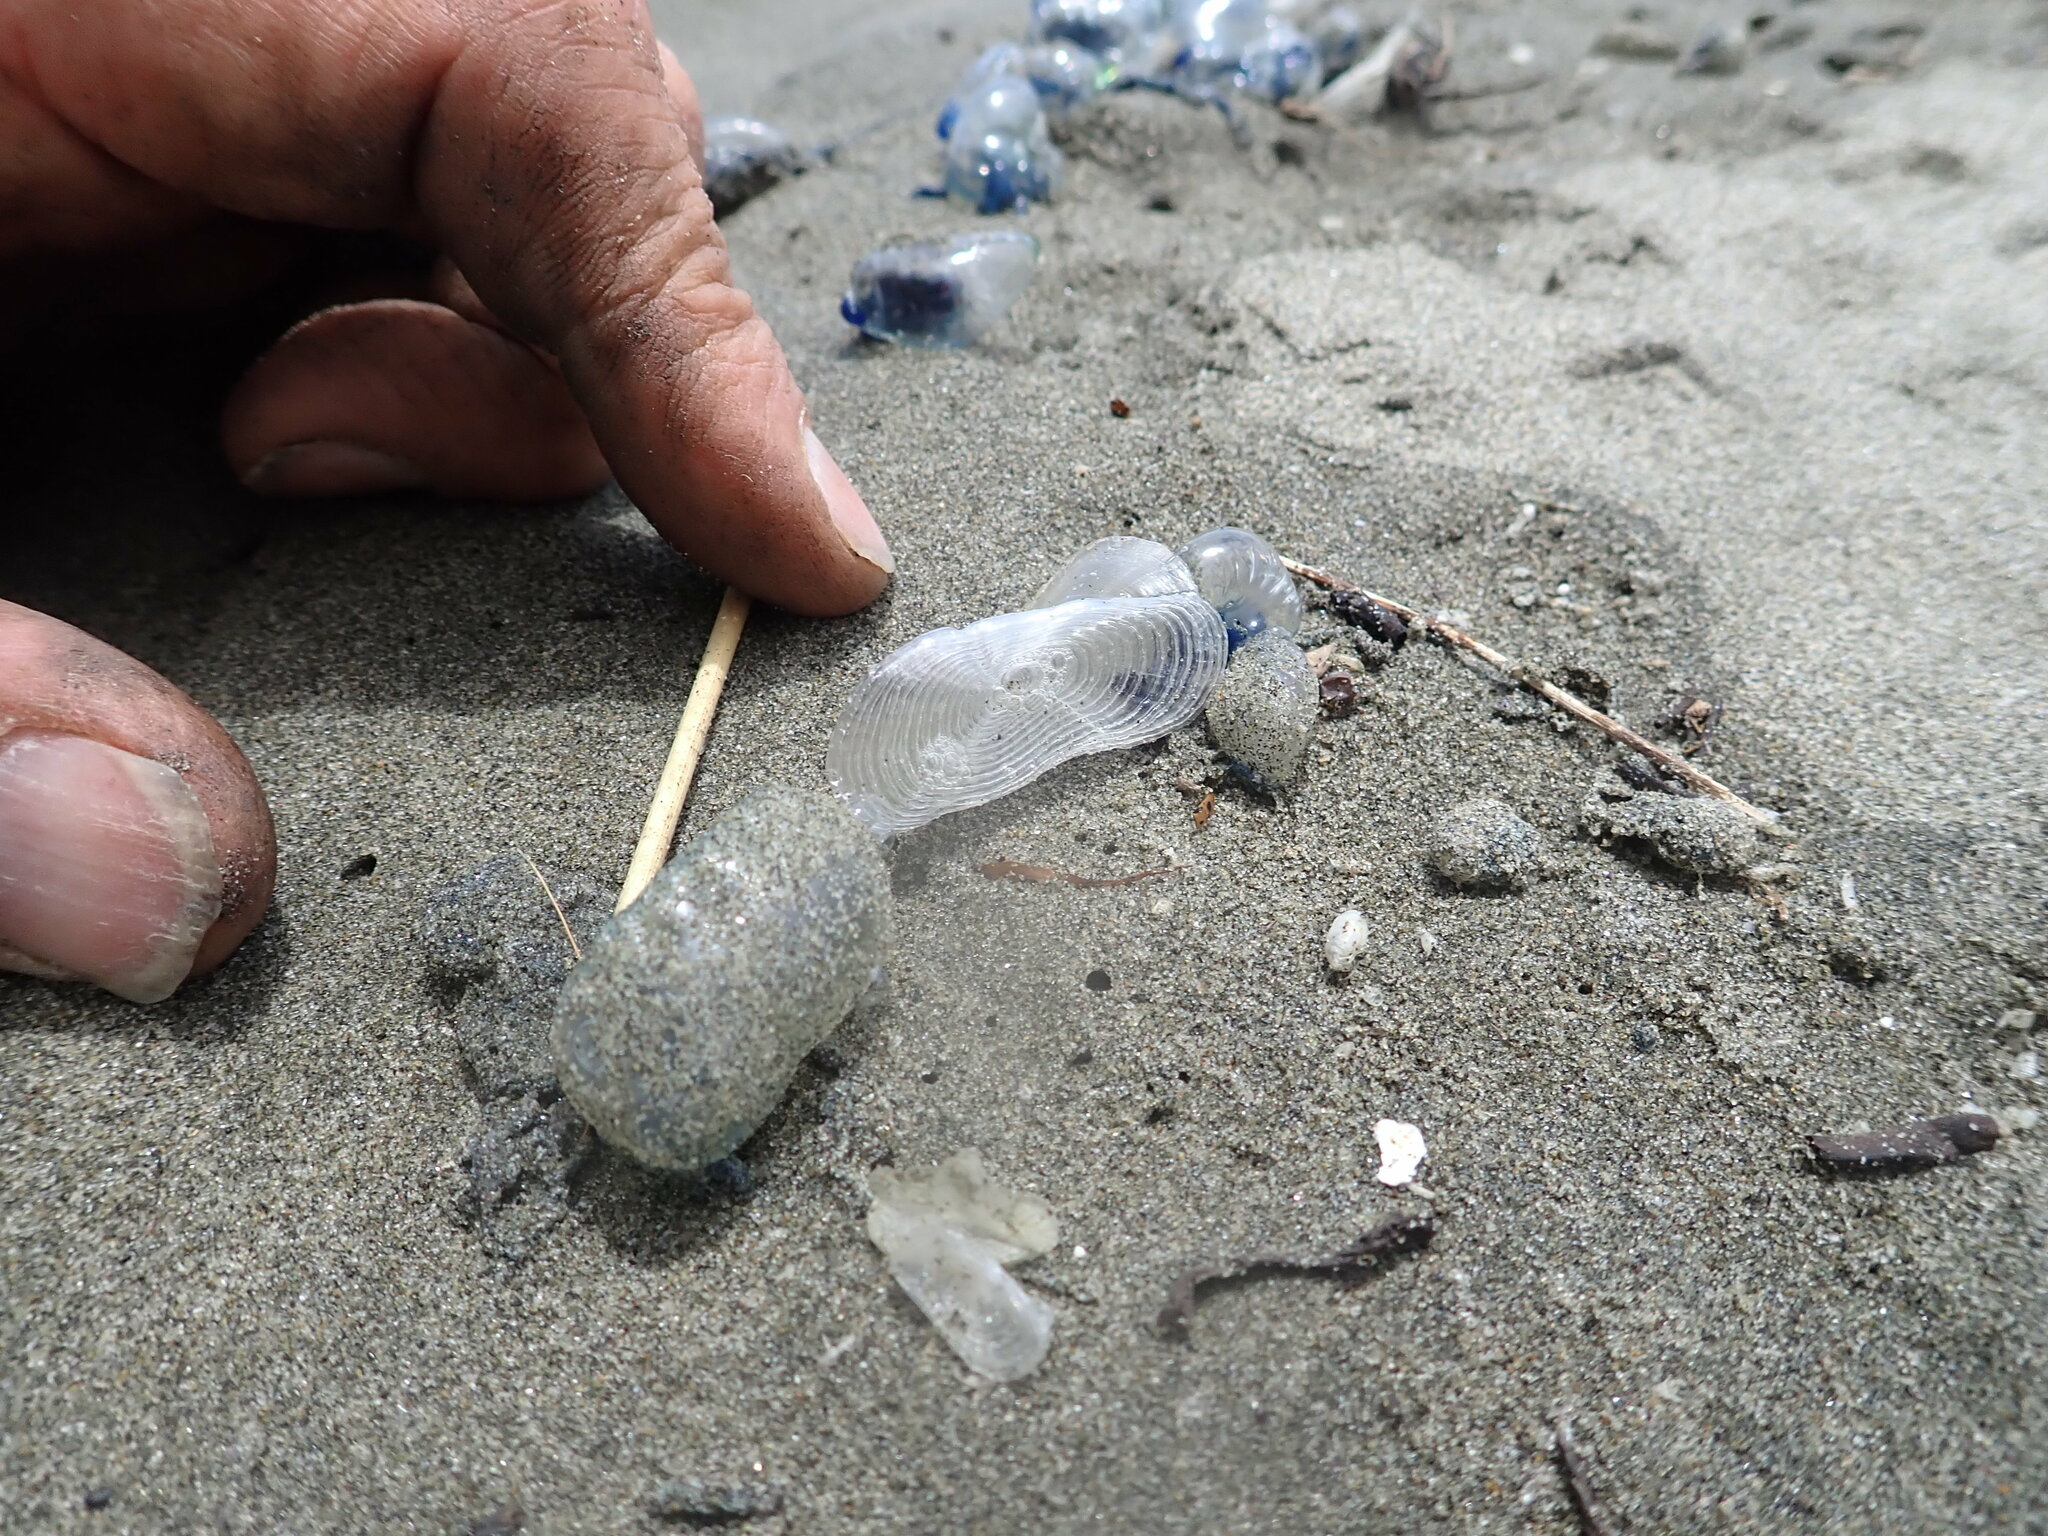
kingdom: Animalia
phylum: Cnidaria
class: Hydrozoa
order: Siphonophorae
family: Physaliidae
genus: Physalia
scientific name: Physalia physalis
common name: Portuguese man-of-war
